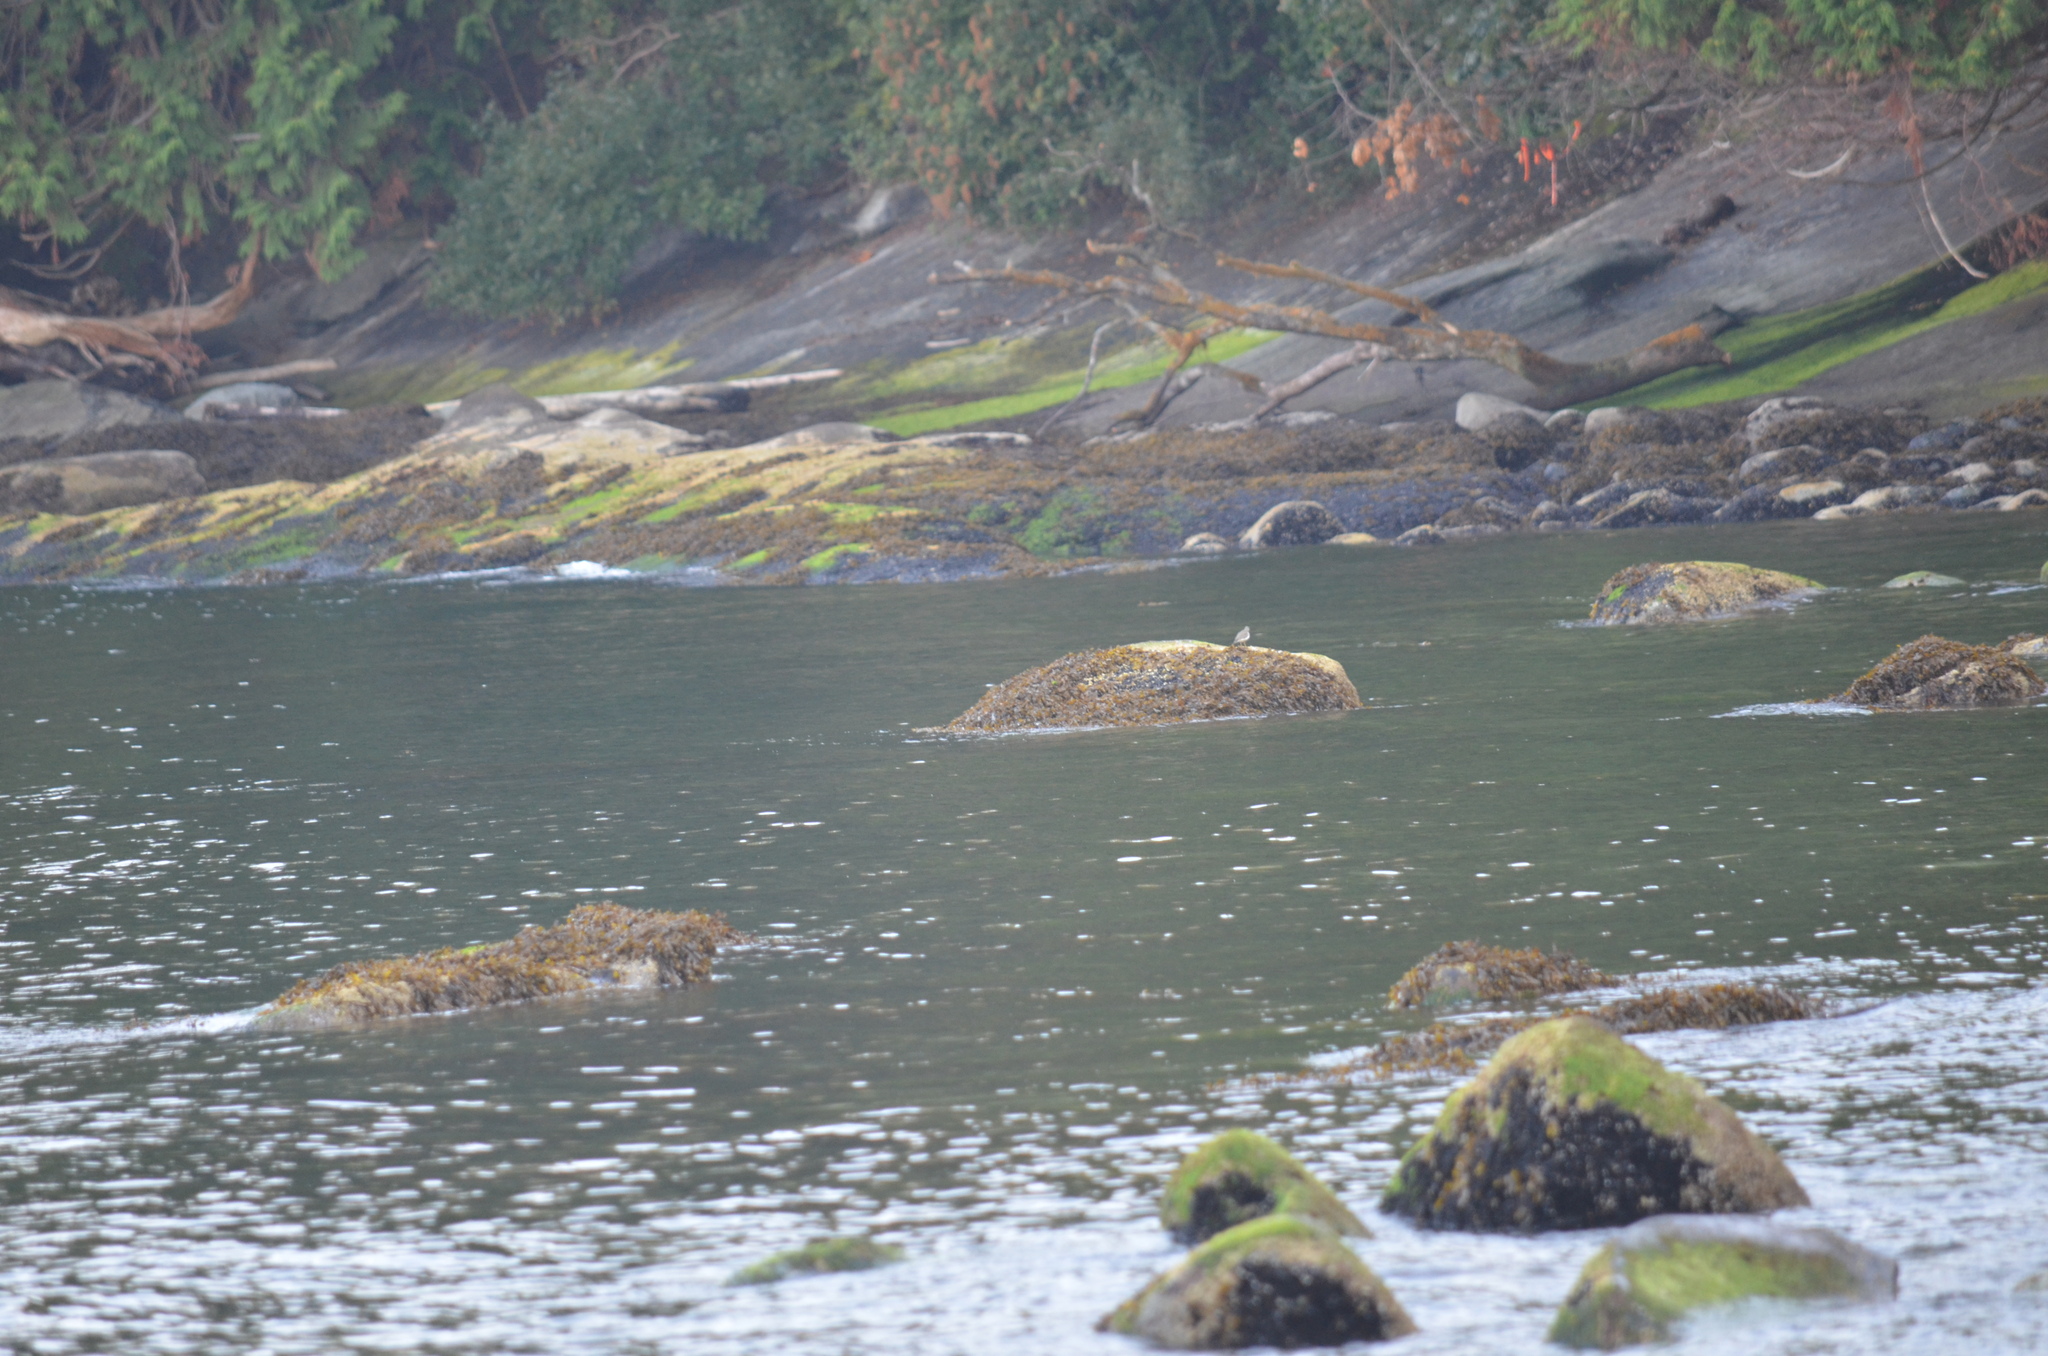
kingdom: Animalia
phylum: Chordata
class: Aves
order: Charadriiformes
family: Scolopacidae
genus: Actitis
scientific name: Actitis macularius
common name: Spotted sandpiper
